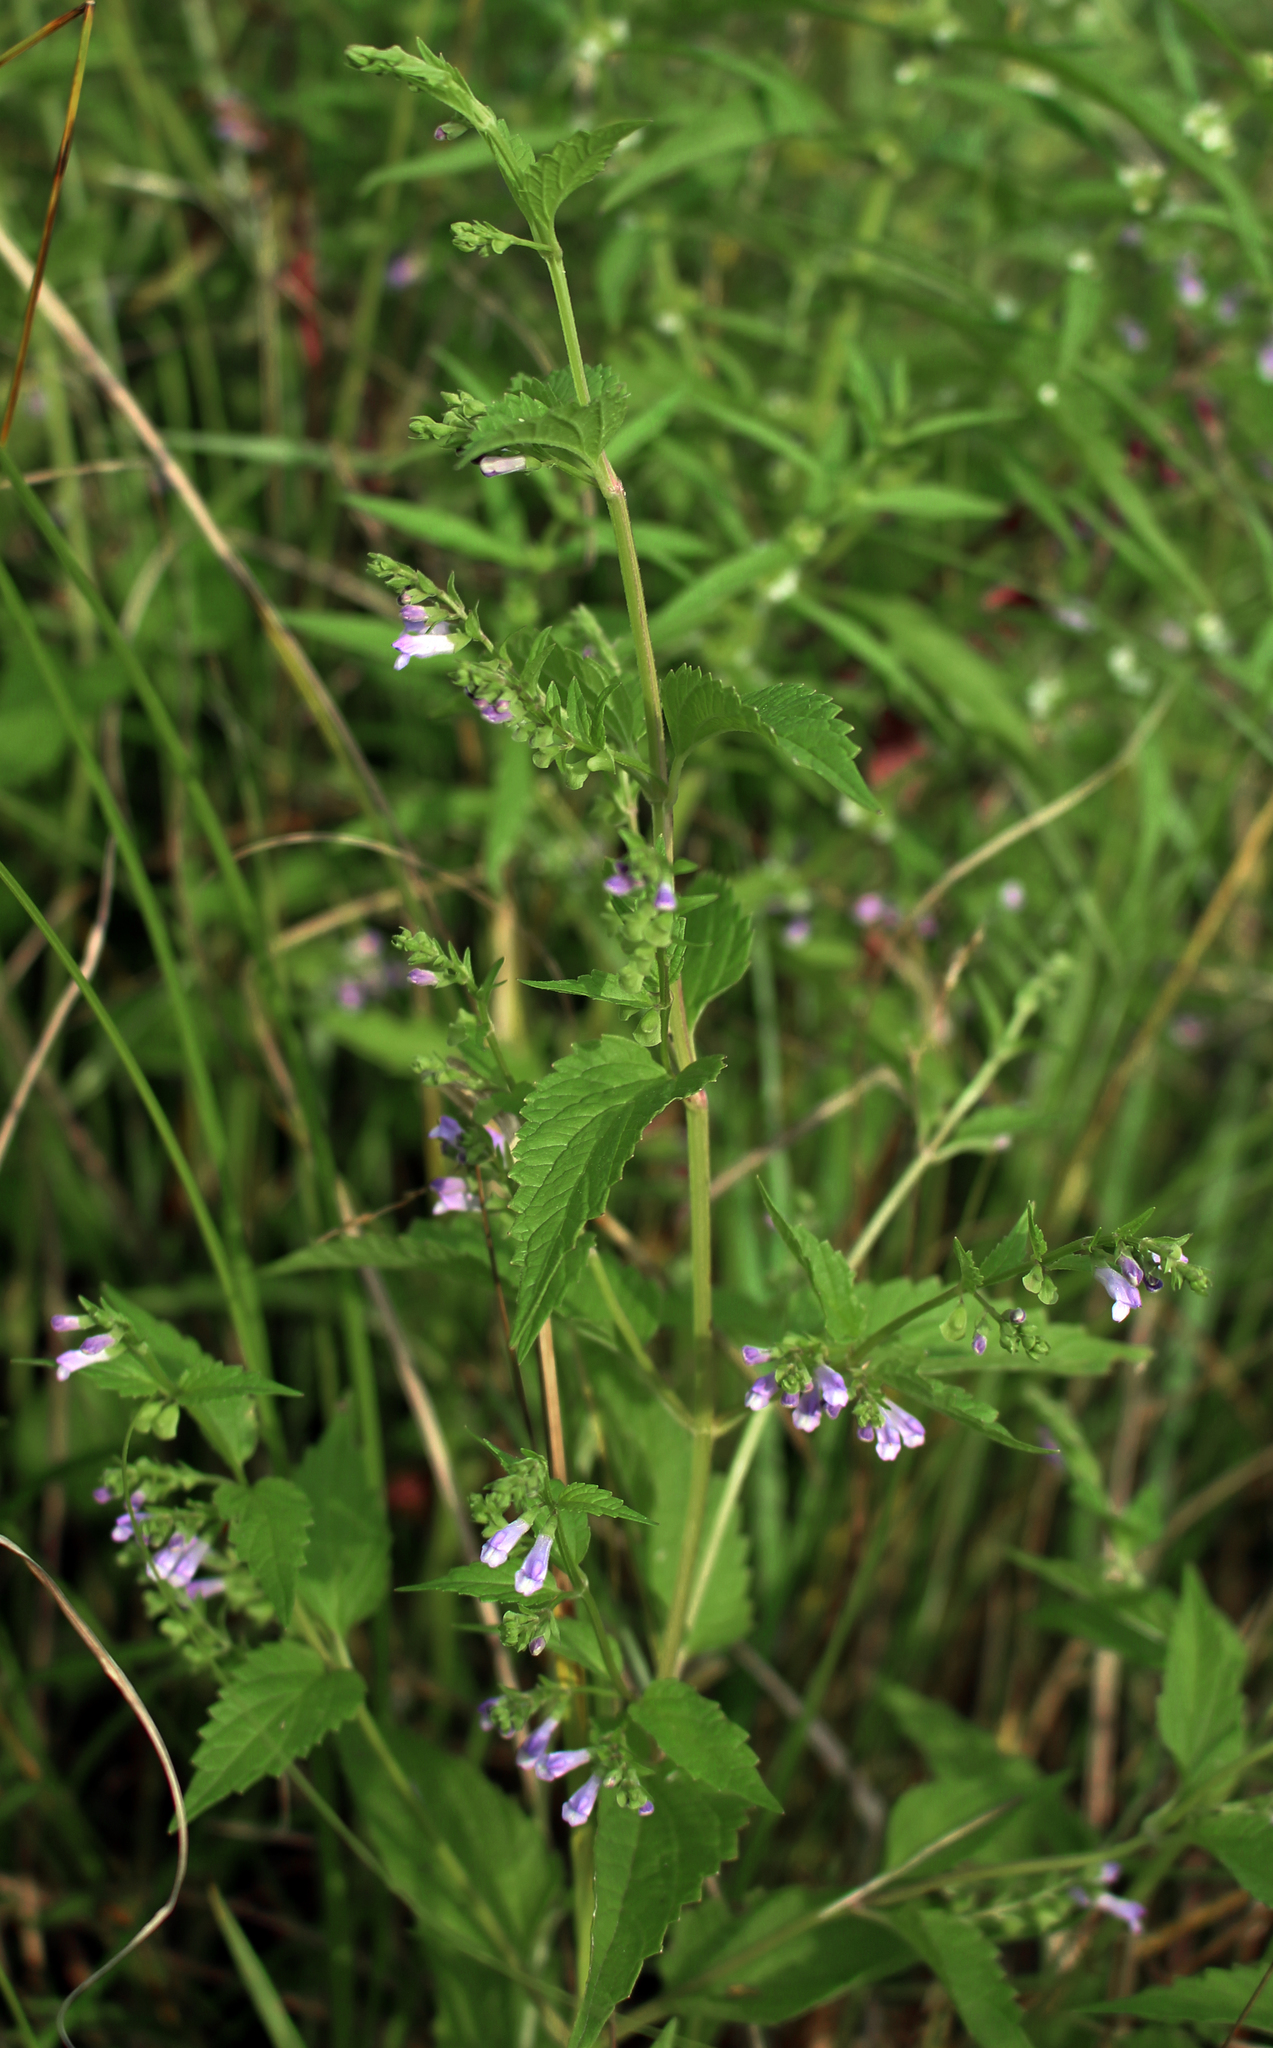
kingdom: Plantae
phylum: Tracheophyta
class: Magnoliopsida
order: Lamiales
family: Lamiaceae
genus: Scutellaria
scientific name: Scutellaria lateriflora
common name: Blue skullcap
